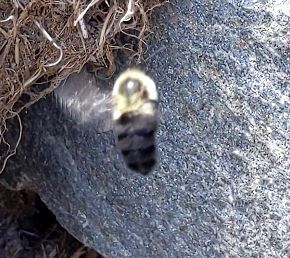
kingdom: Animalia
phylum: Arthropoda
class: Insecta
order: Hymenoptera
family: Apidae
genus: Bombus
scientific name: Bombus impatiens
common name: Common eastern bumble bee
